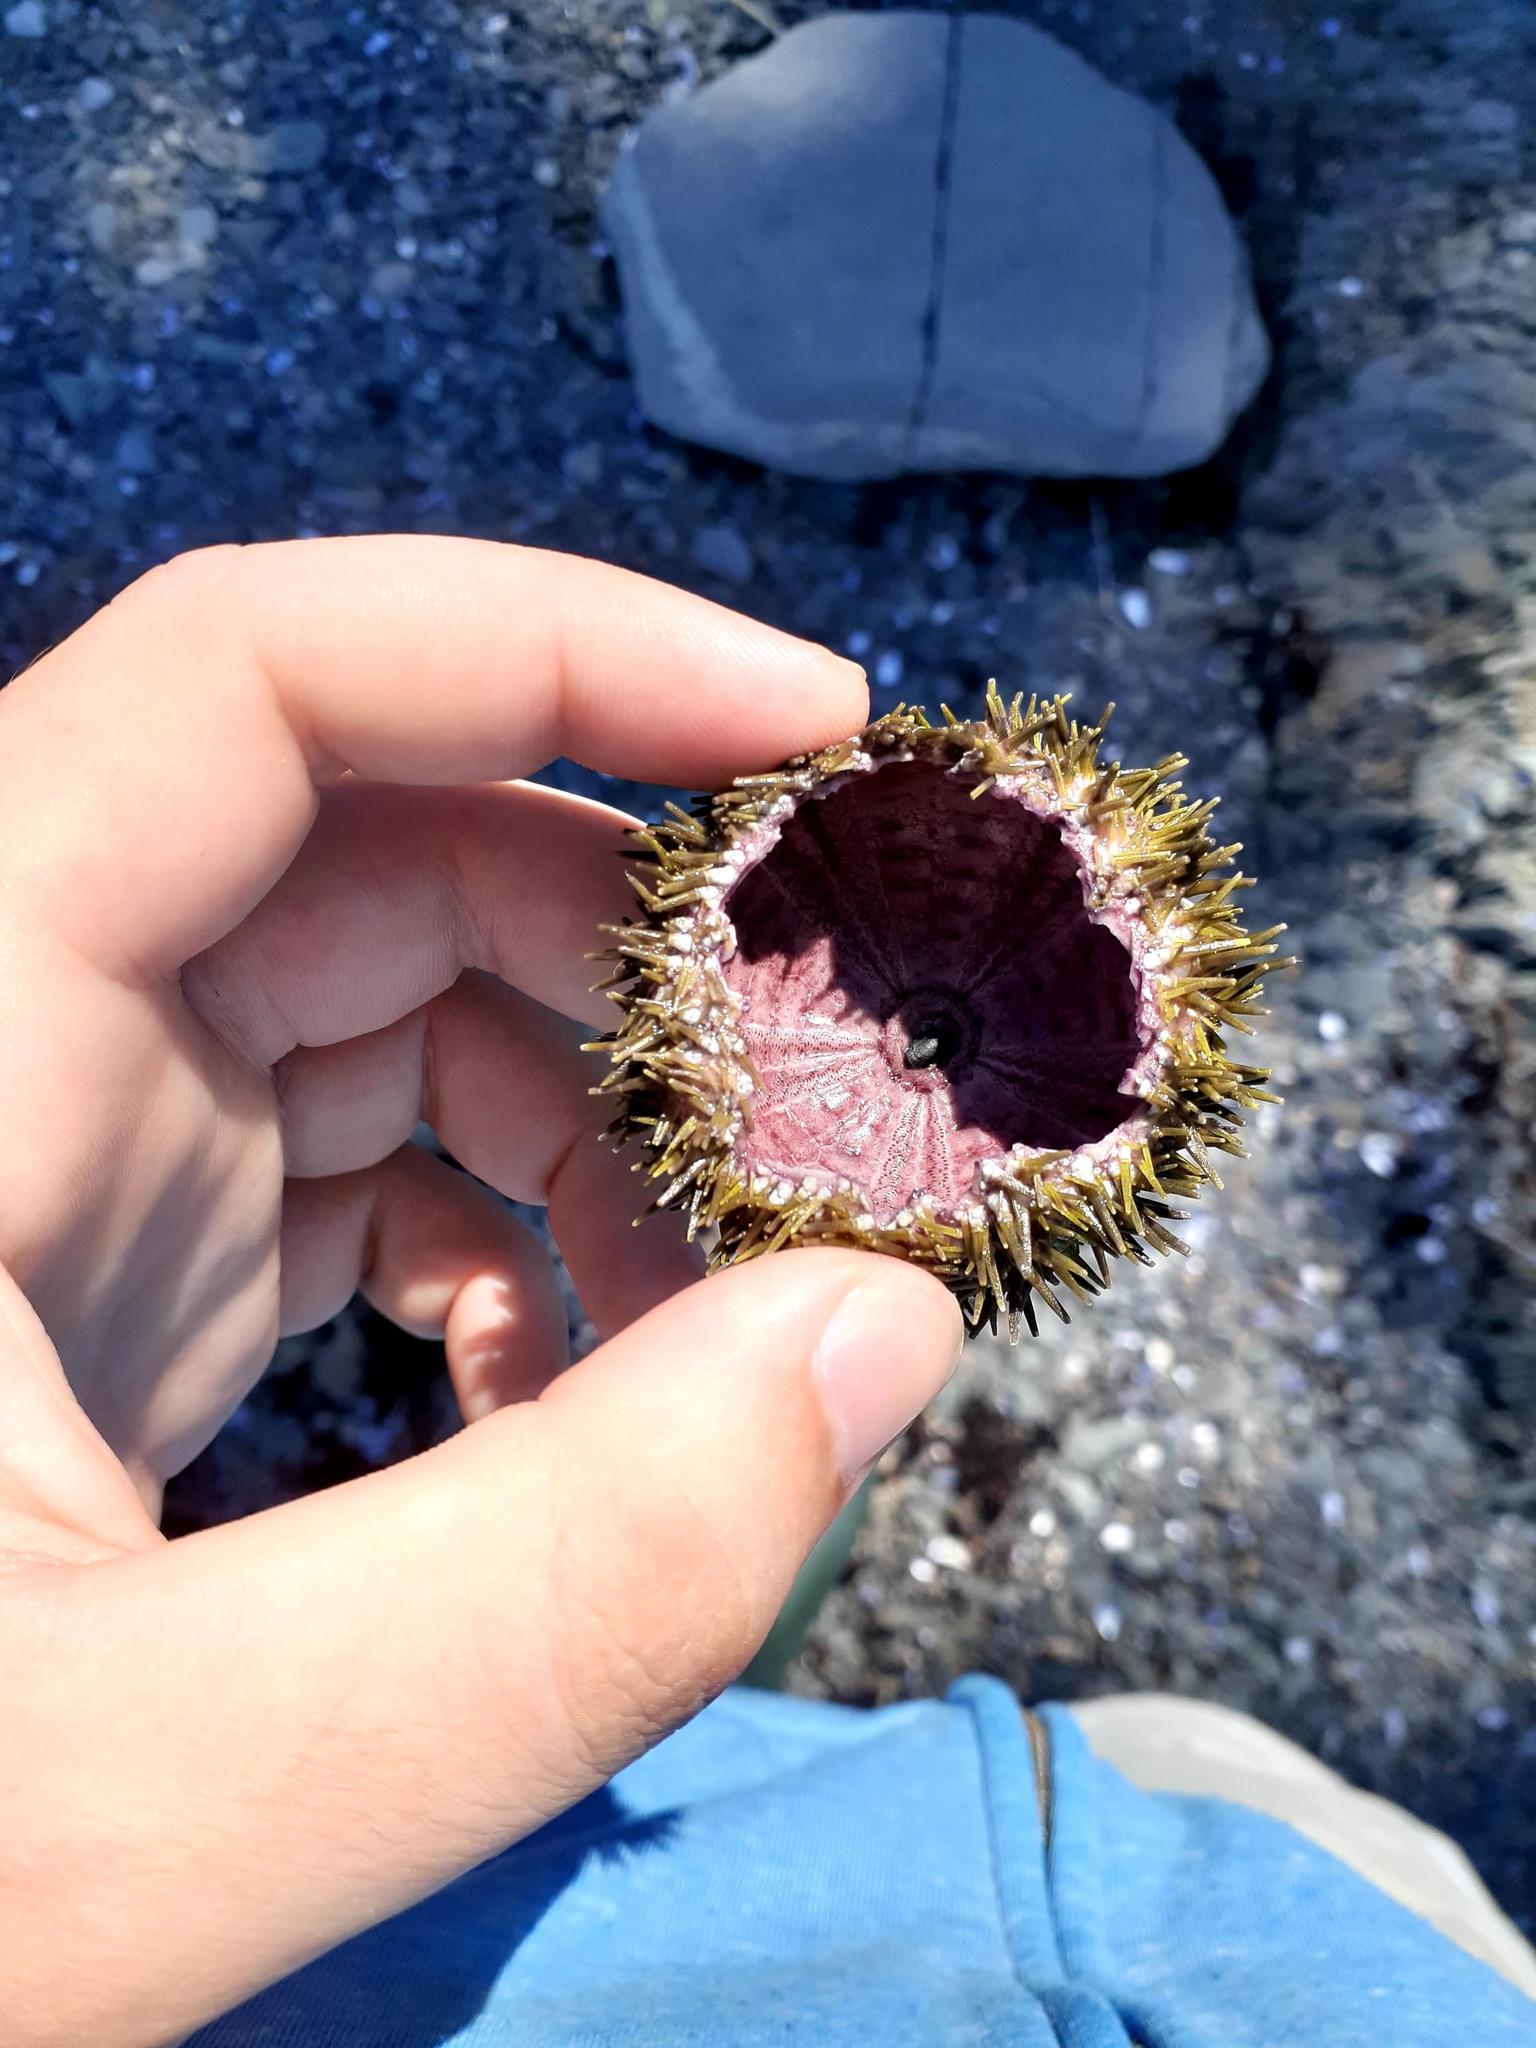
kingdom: Animalia
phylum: Echinodermata
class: Echinoidea
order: Camarodonta
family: Strongylocentrotidae
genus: Strongylocentrotus
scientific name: Strongylocentrotus droebachiensis
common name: Northern sea urchin
